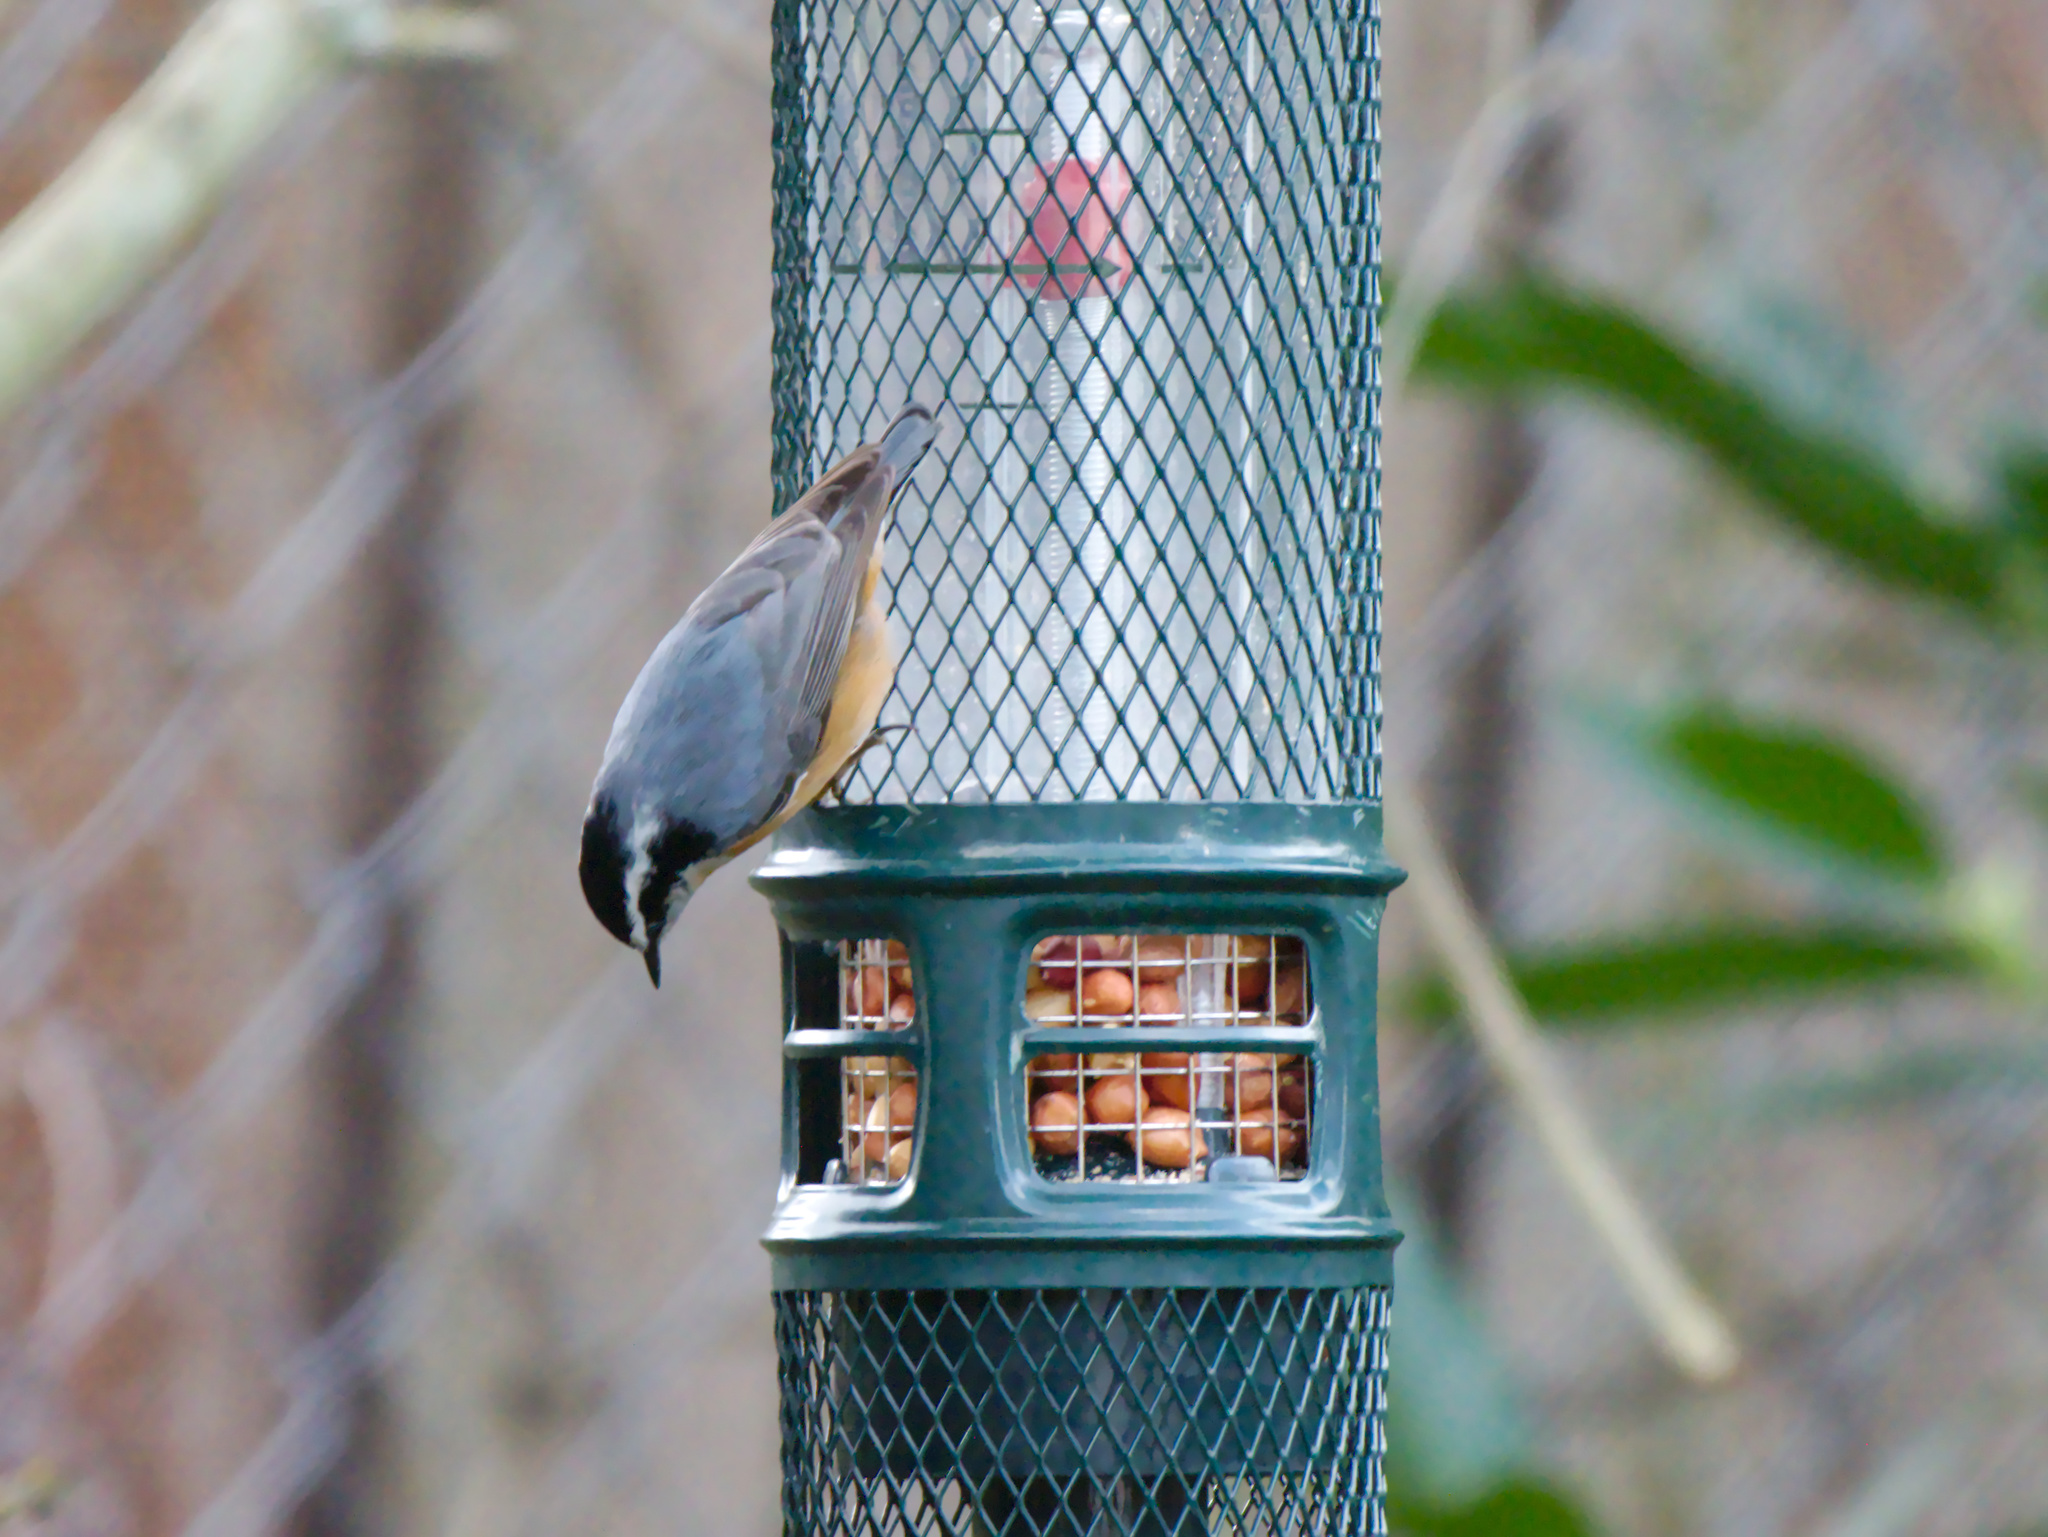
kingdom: Animalia
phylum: Chordata
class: Aves
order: Passeriformes
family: Sittidae
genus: Sitta
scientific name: Sitta canadensis
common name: Red-breasted nuthatch
